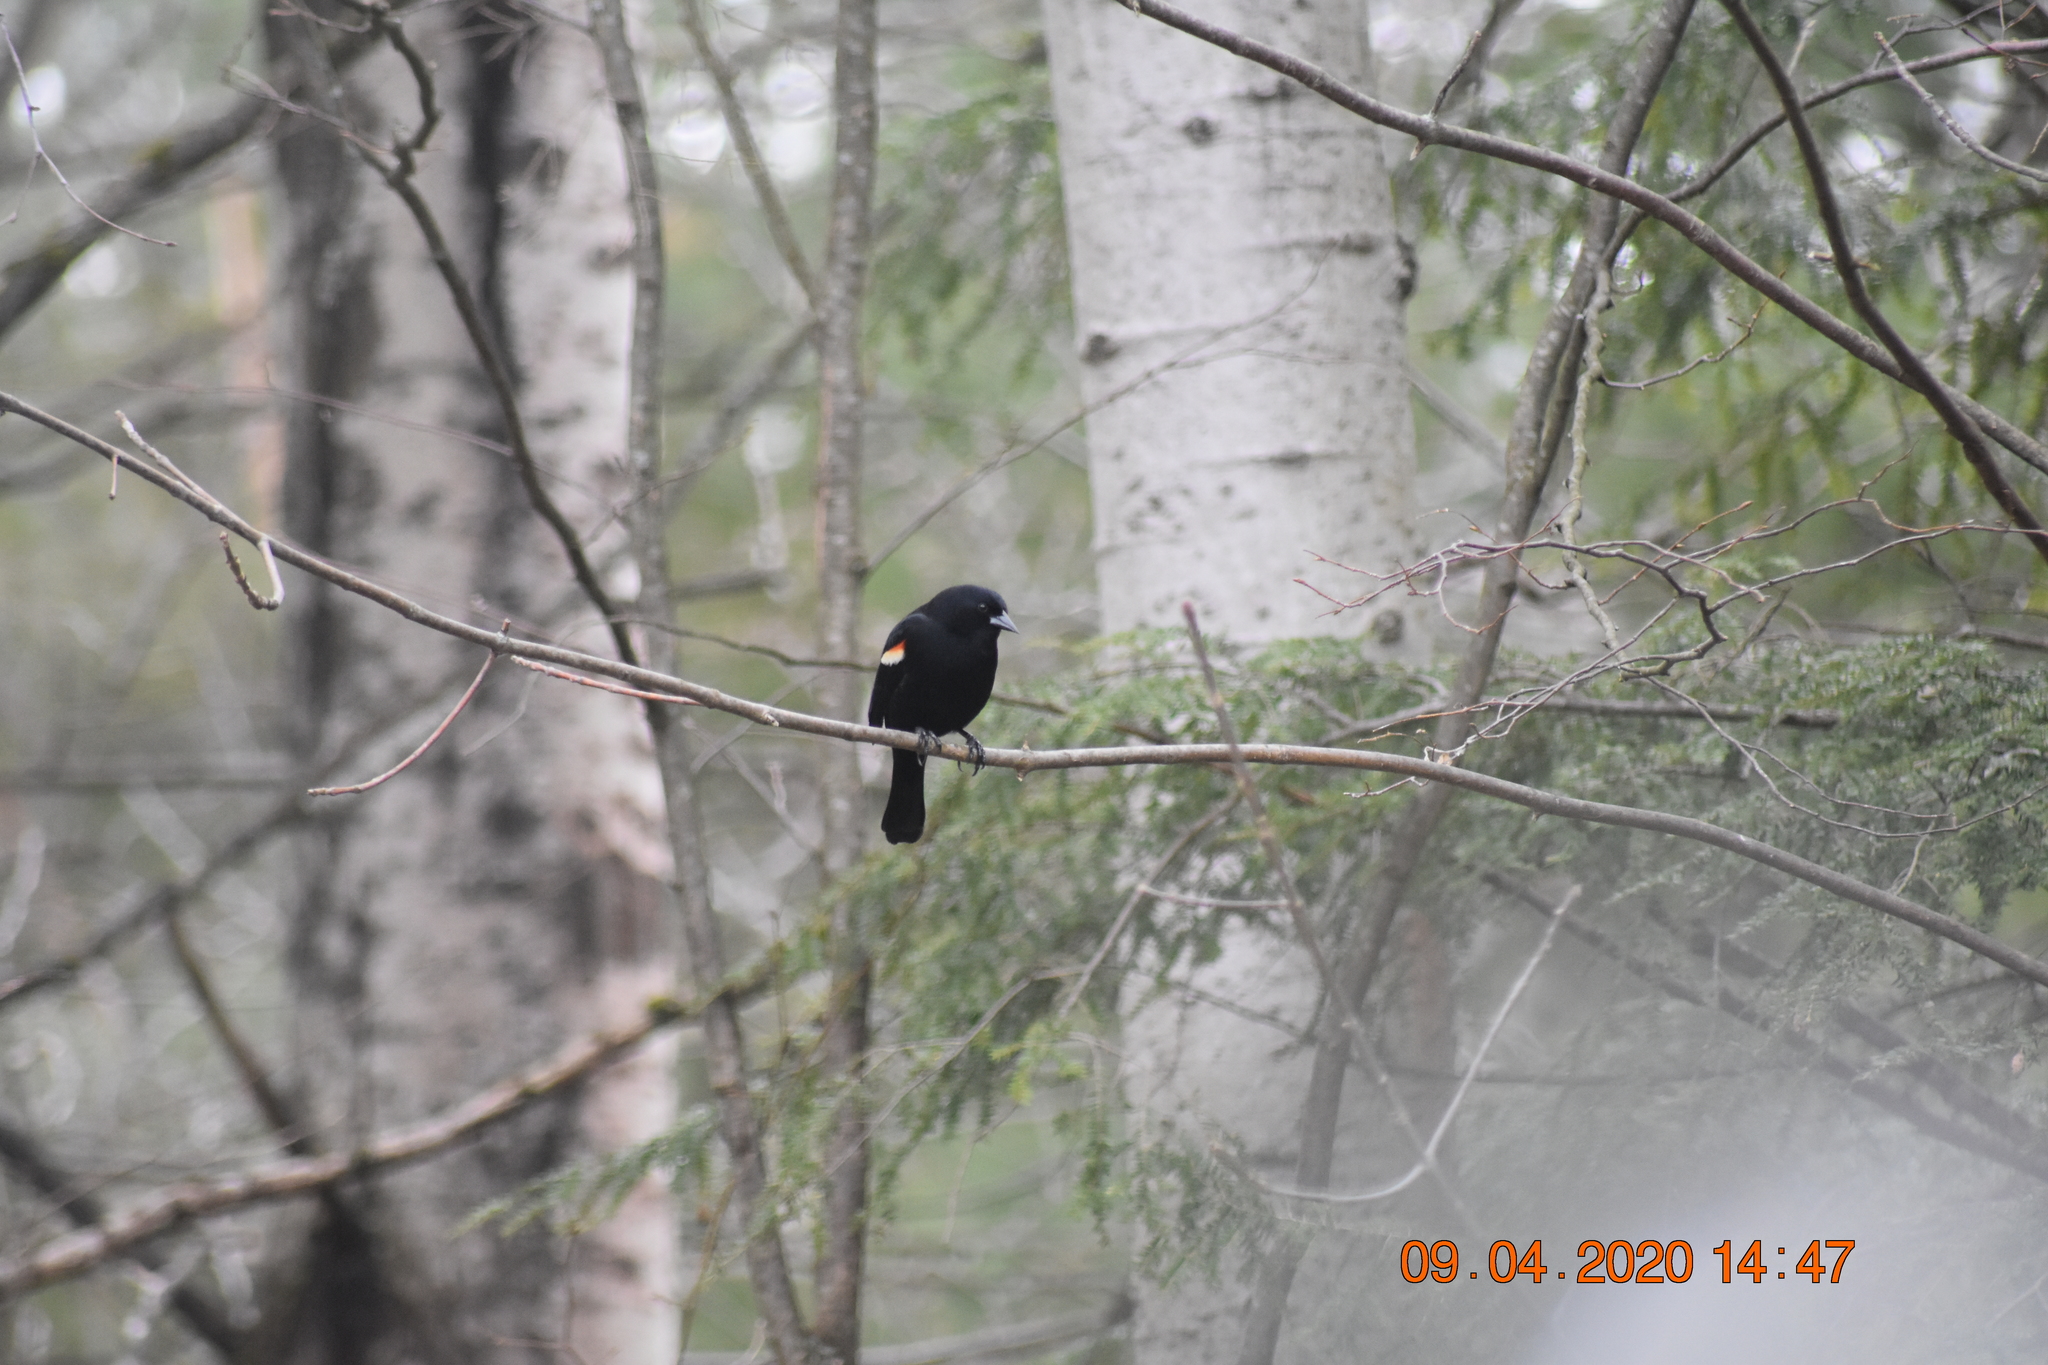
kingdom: Animalia
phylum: Chordata
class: Aves
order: Passeriformes
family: Icteridae
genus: Agelaius
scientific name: Agelaius phoeniceus
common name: Red-winged blackbird
